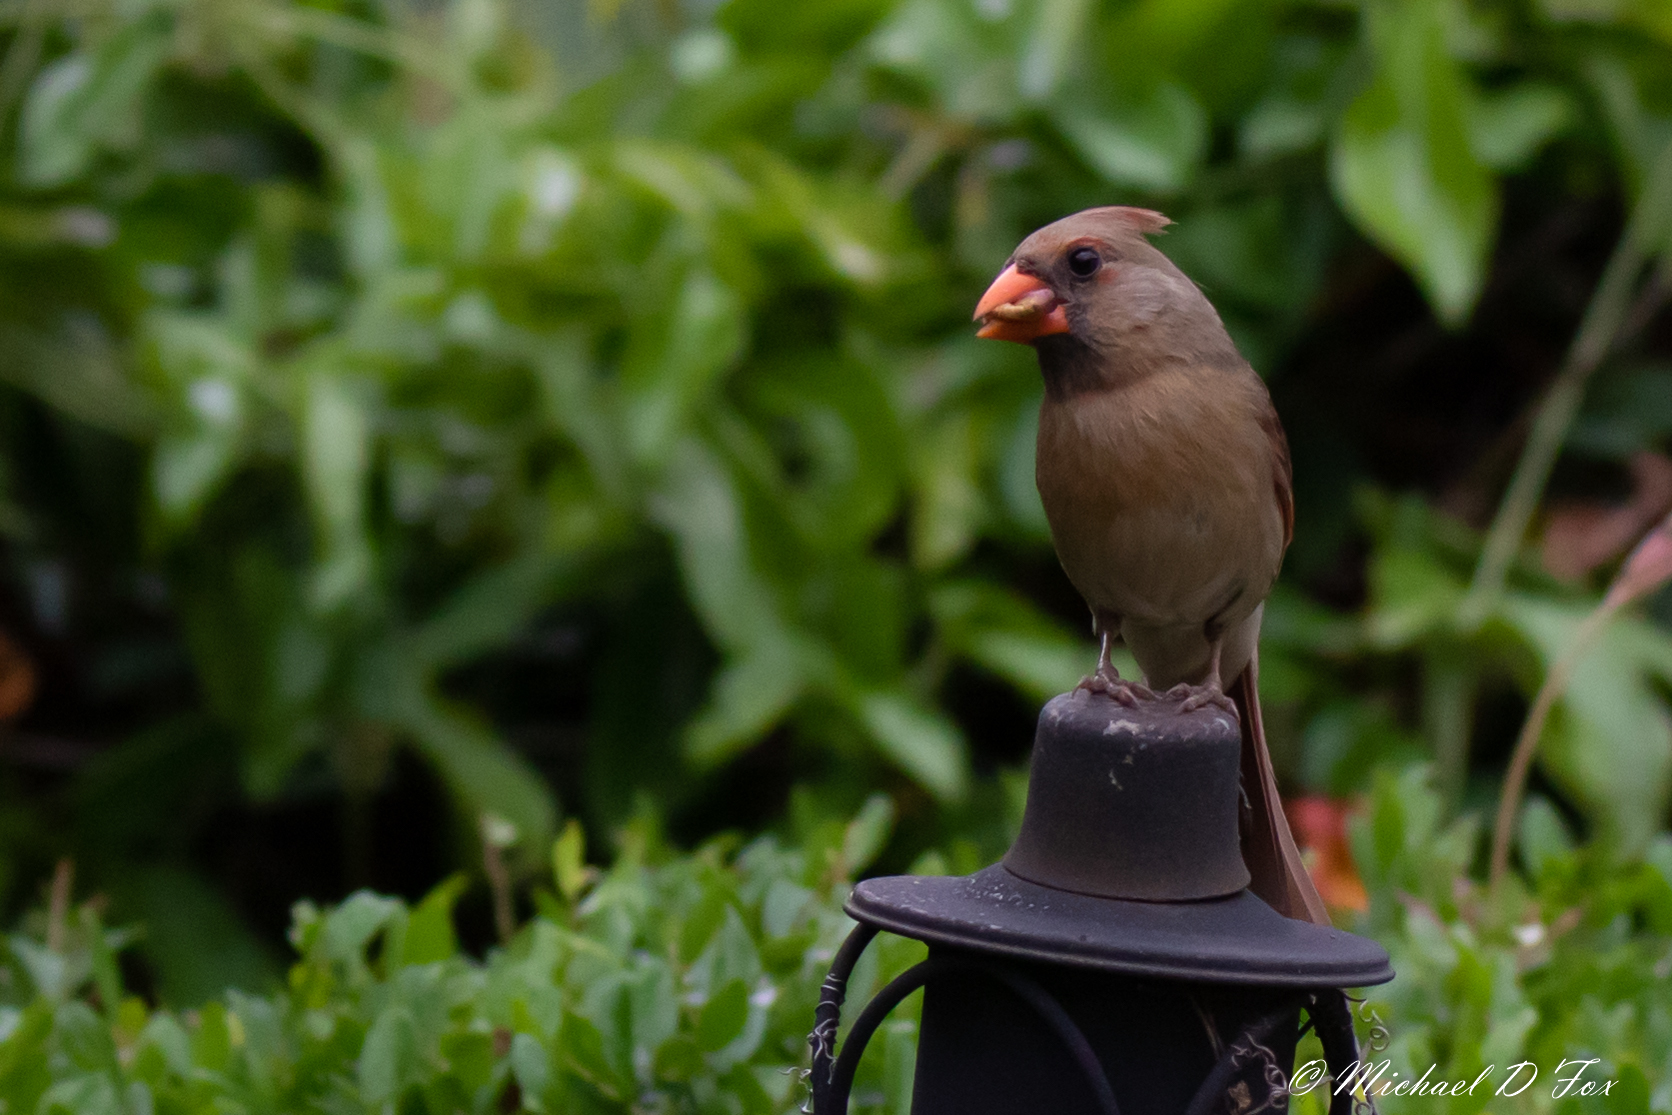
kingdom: Animalia
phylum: Chordata
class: Aves
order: Passeriformes
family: Cardinalidae
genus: Cardinalis
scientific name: Cardinalis cardinalis
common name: Northern cardinal
